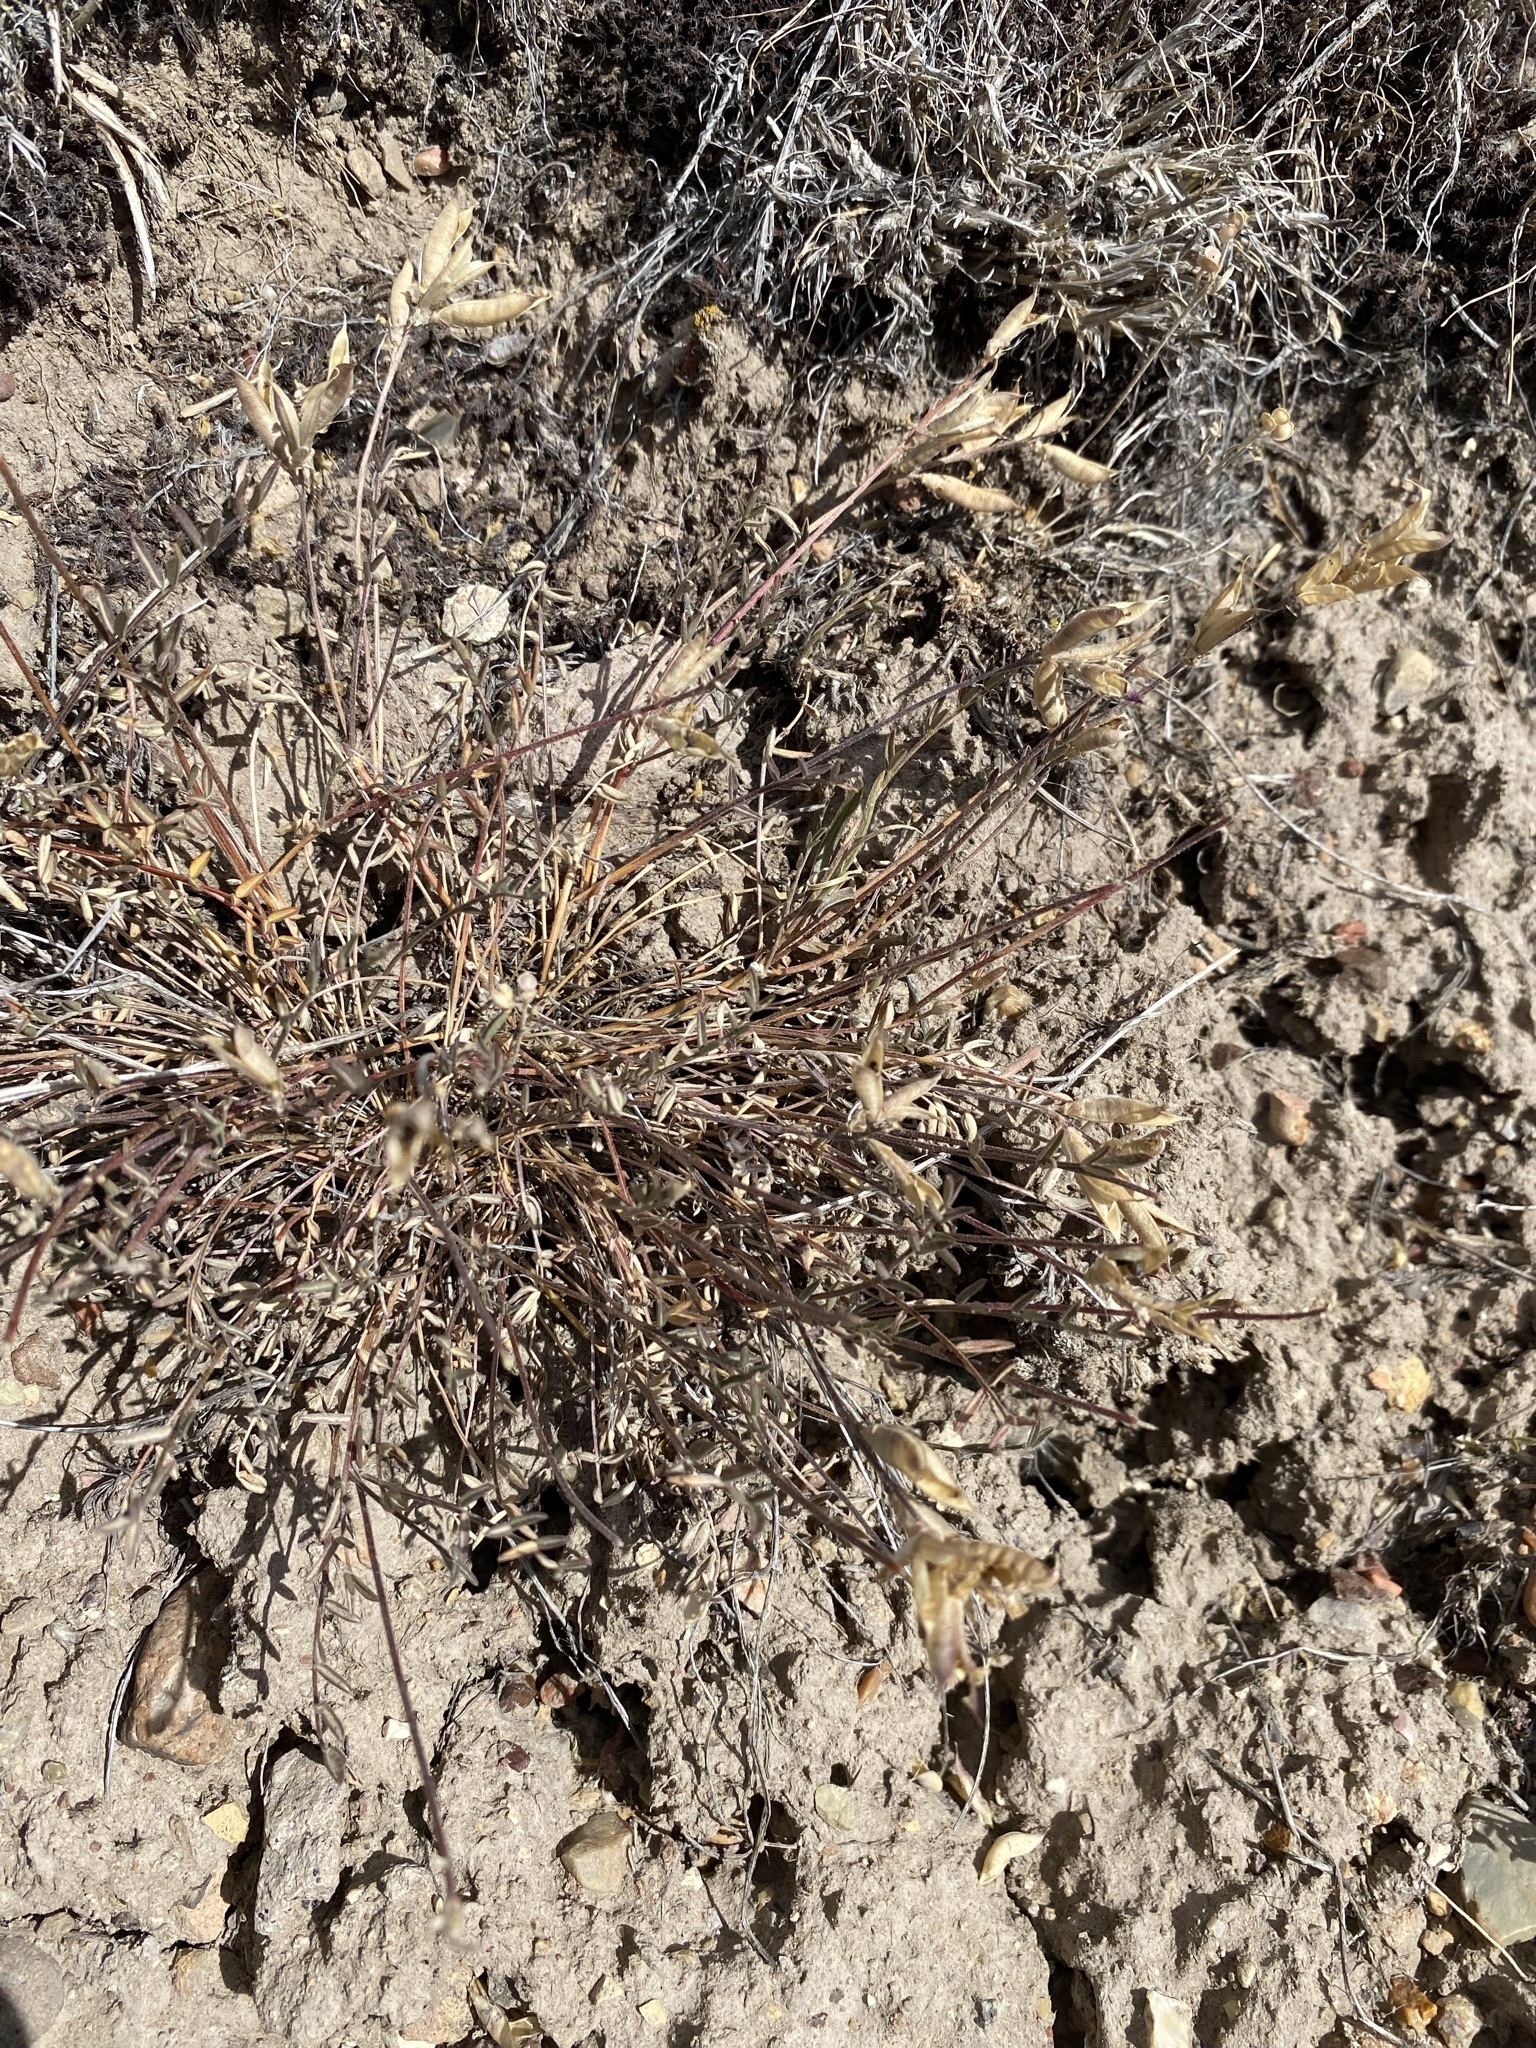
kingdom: Plantae
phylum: Tracheophyta
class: Magnoliopsida
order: Fabales
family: Fabaceae
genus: Astragalus
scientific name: Astragalus eremiticus
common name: Hermit milk-vetch
